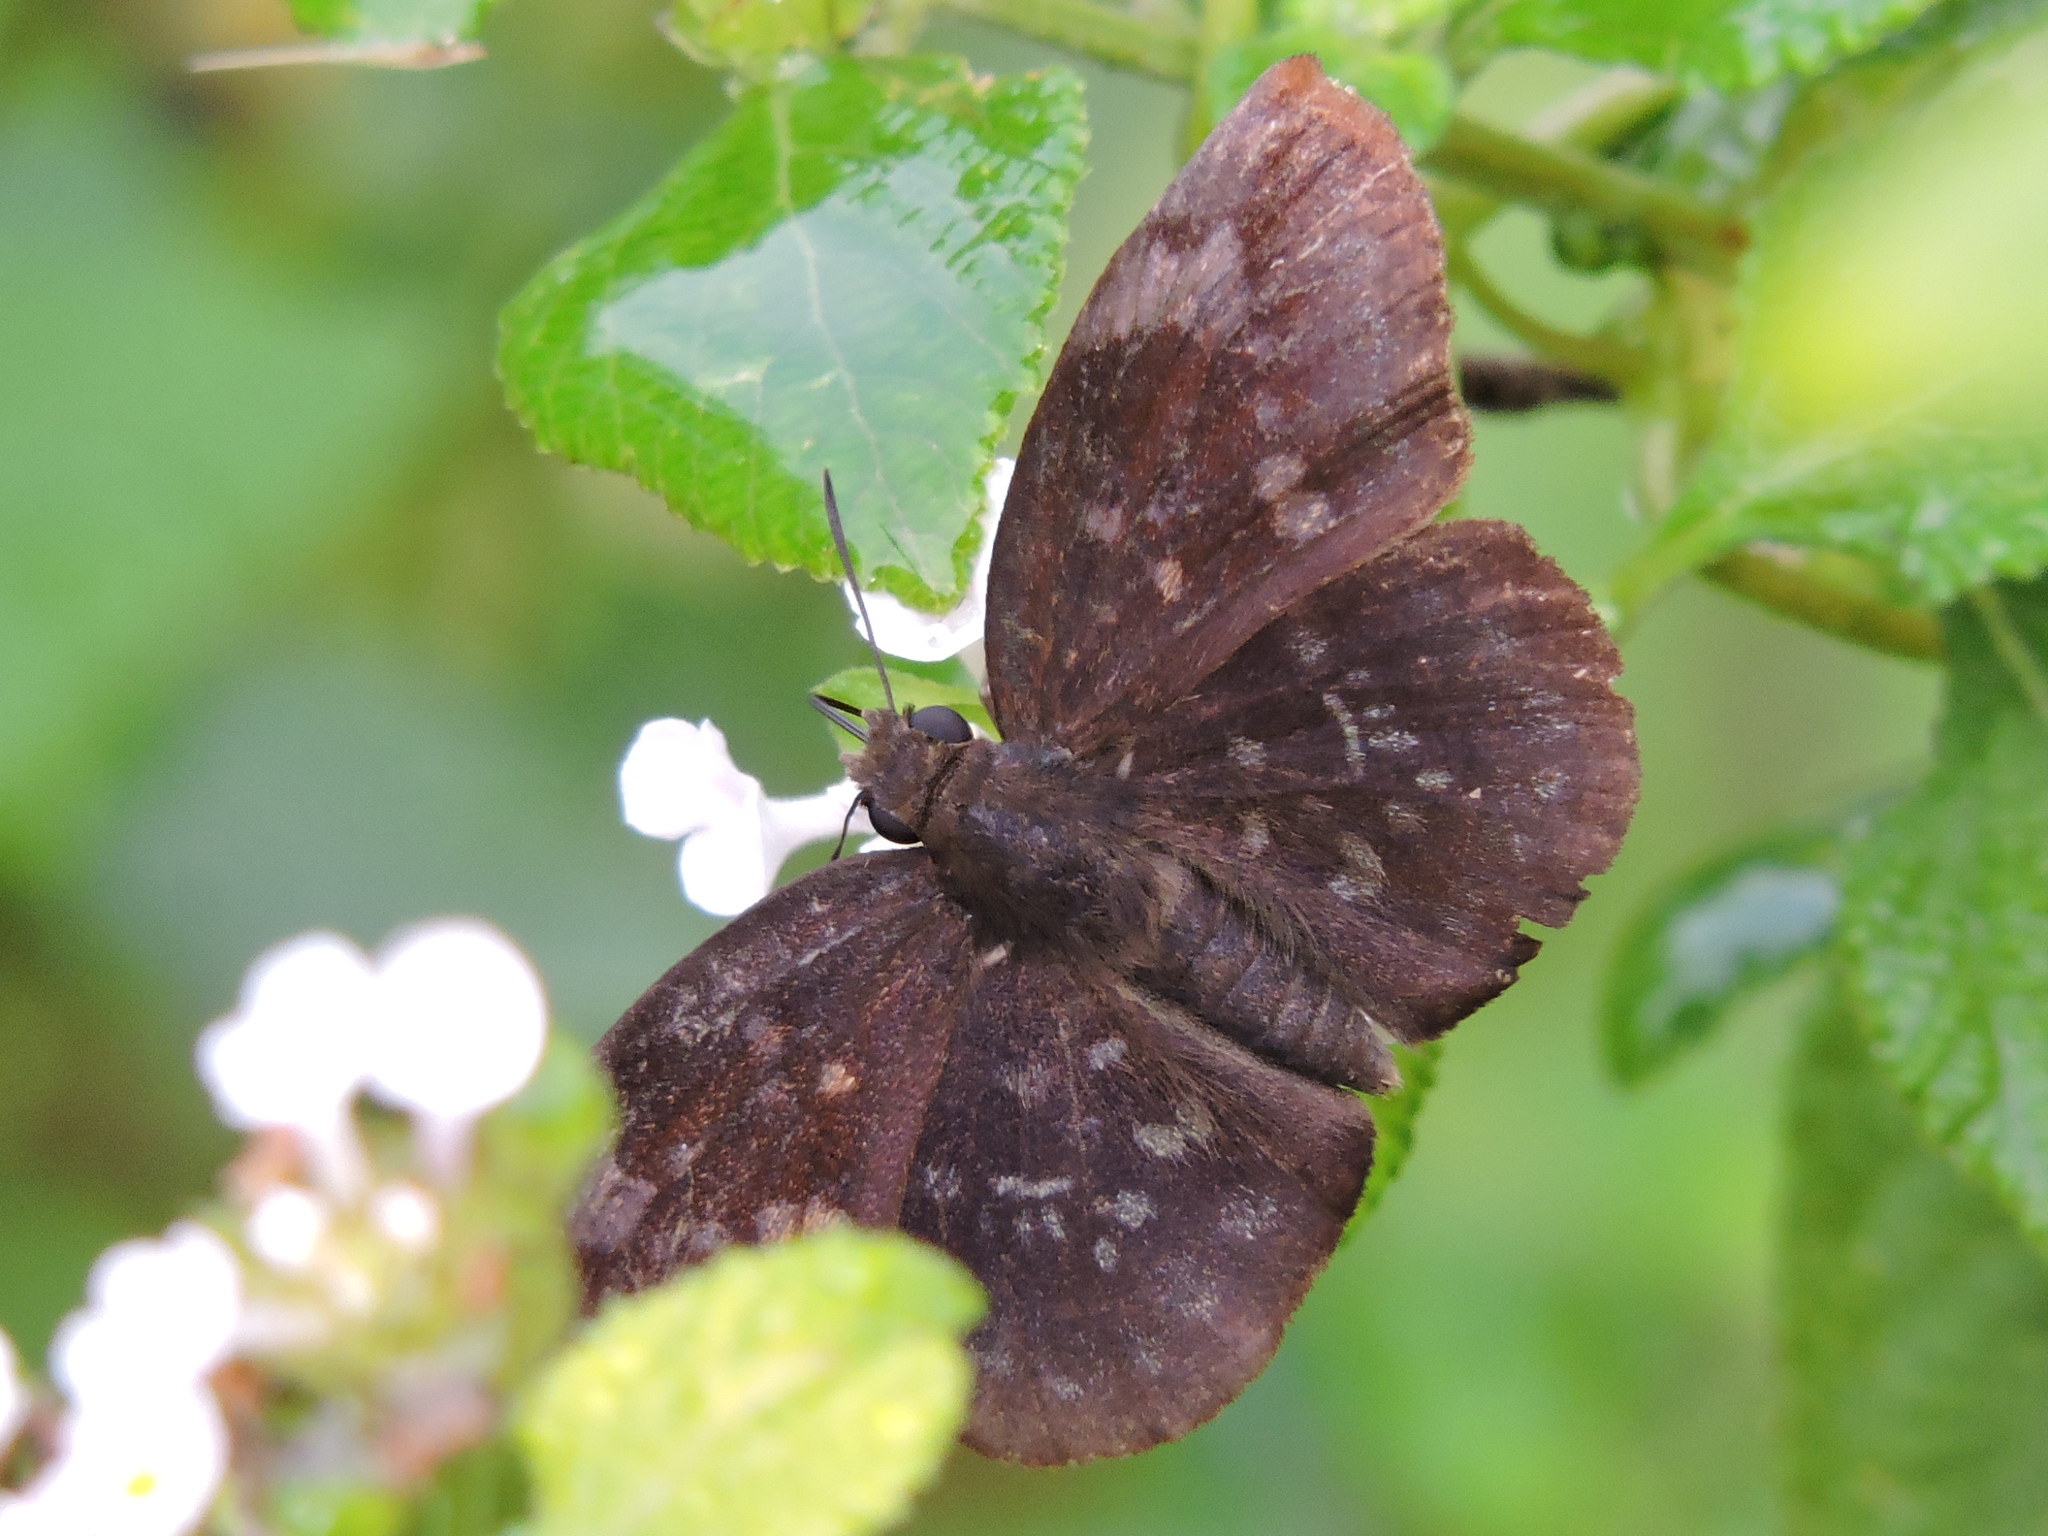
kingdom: Animalia
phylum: Arthropoda
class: Insecta
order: Lepidoptera
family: Hesperiidae
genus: Achlyodes
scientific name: Achlyodes thraso
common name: Sickle-winged skipper
